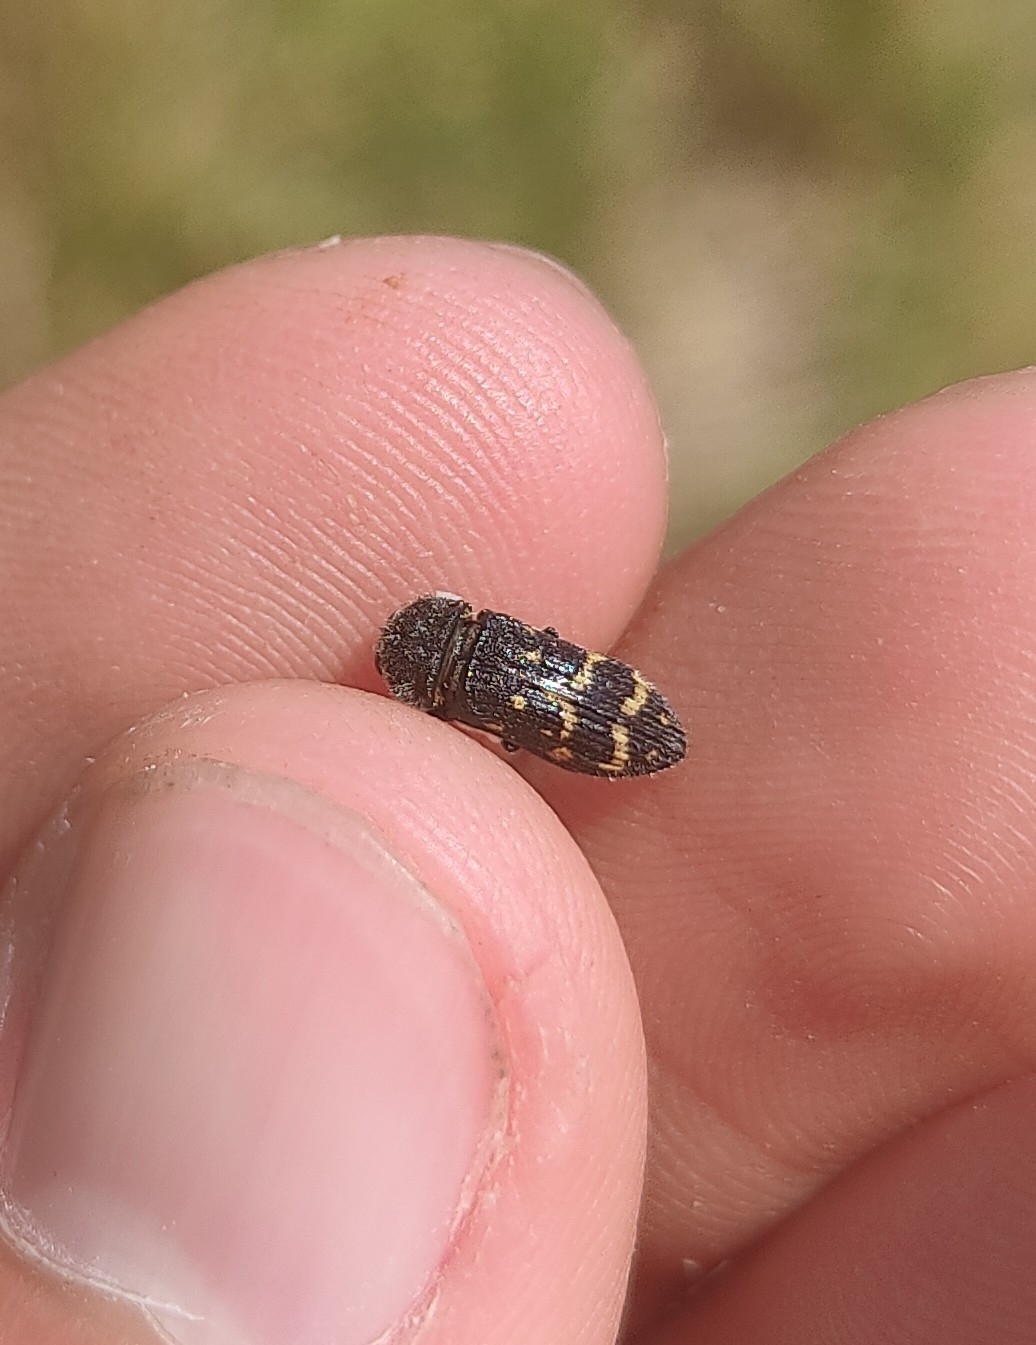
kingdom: Animalia
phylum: Arthropoda
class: Insecta
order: Coleoptera
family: Buprestidae
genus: Acmaeoderella
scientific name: Acmaeoderella flavofasciata
